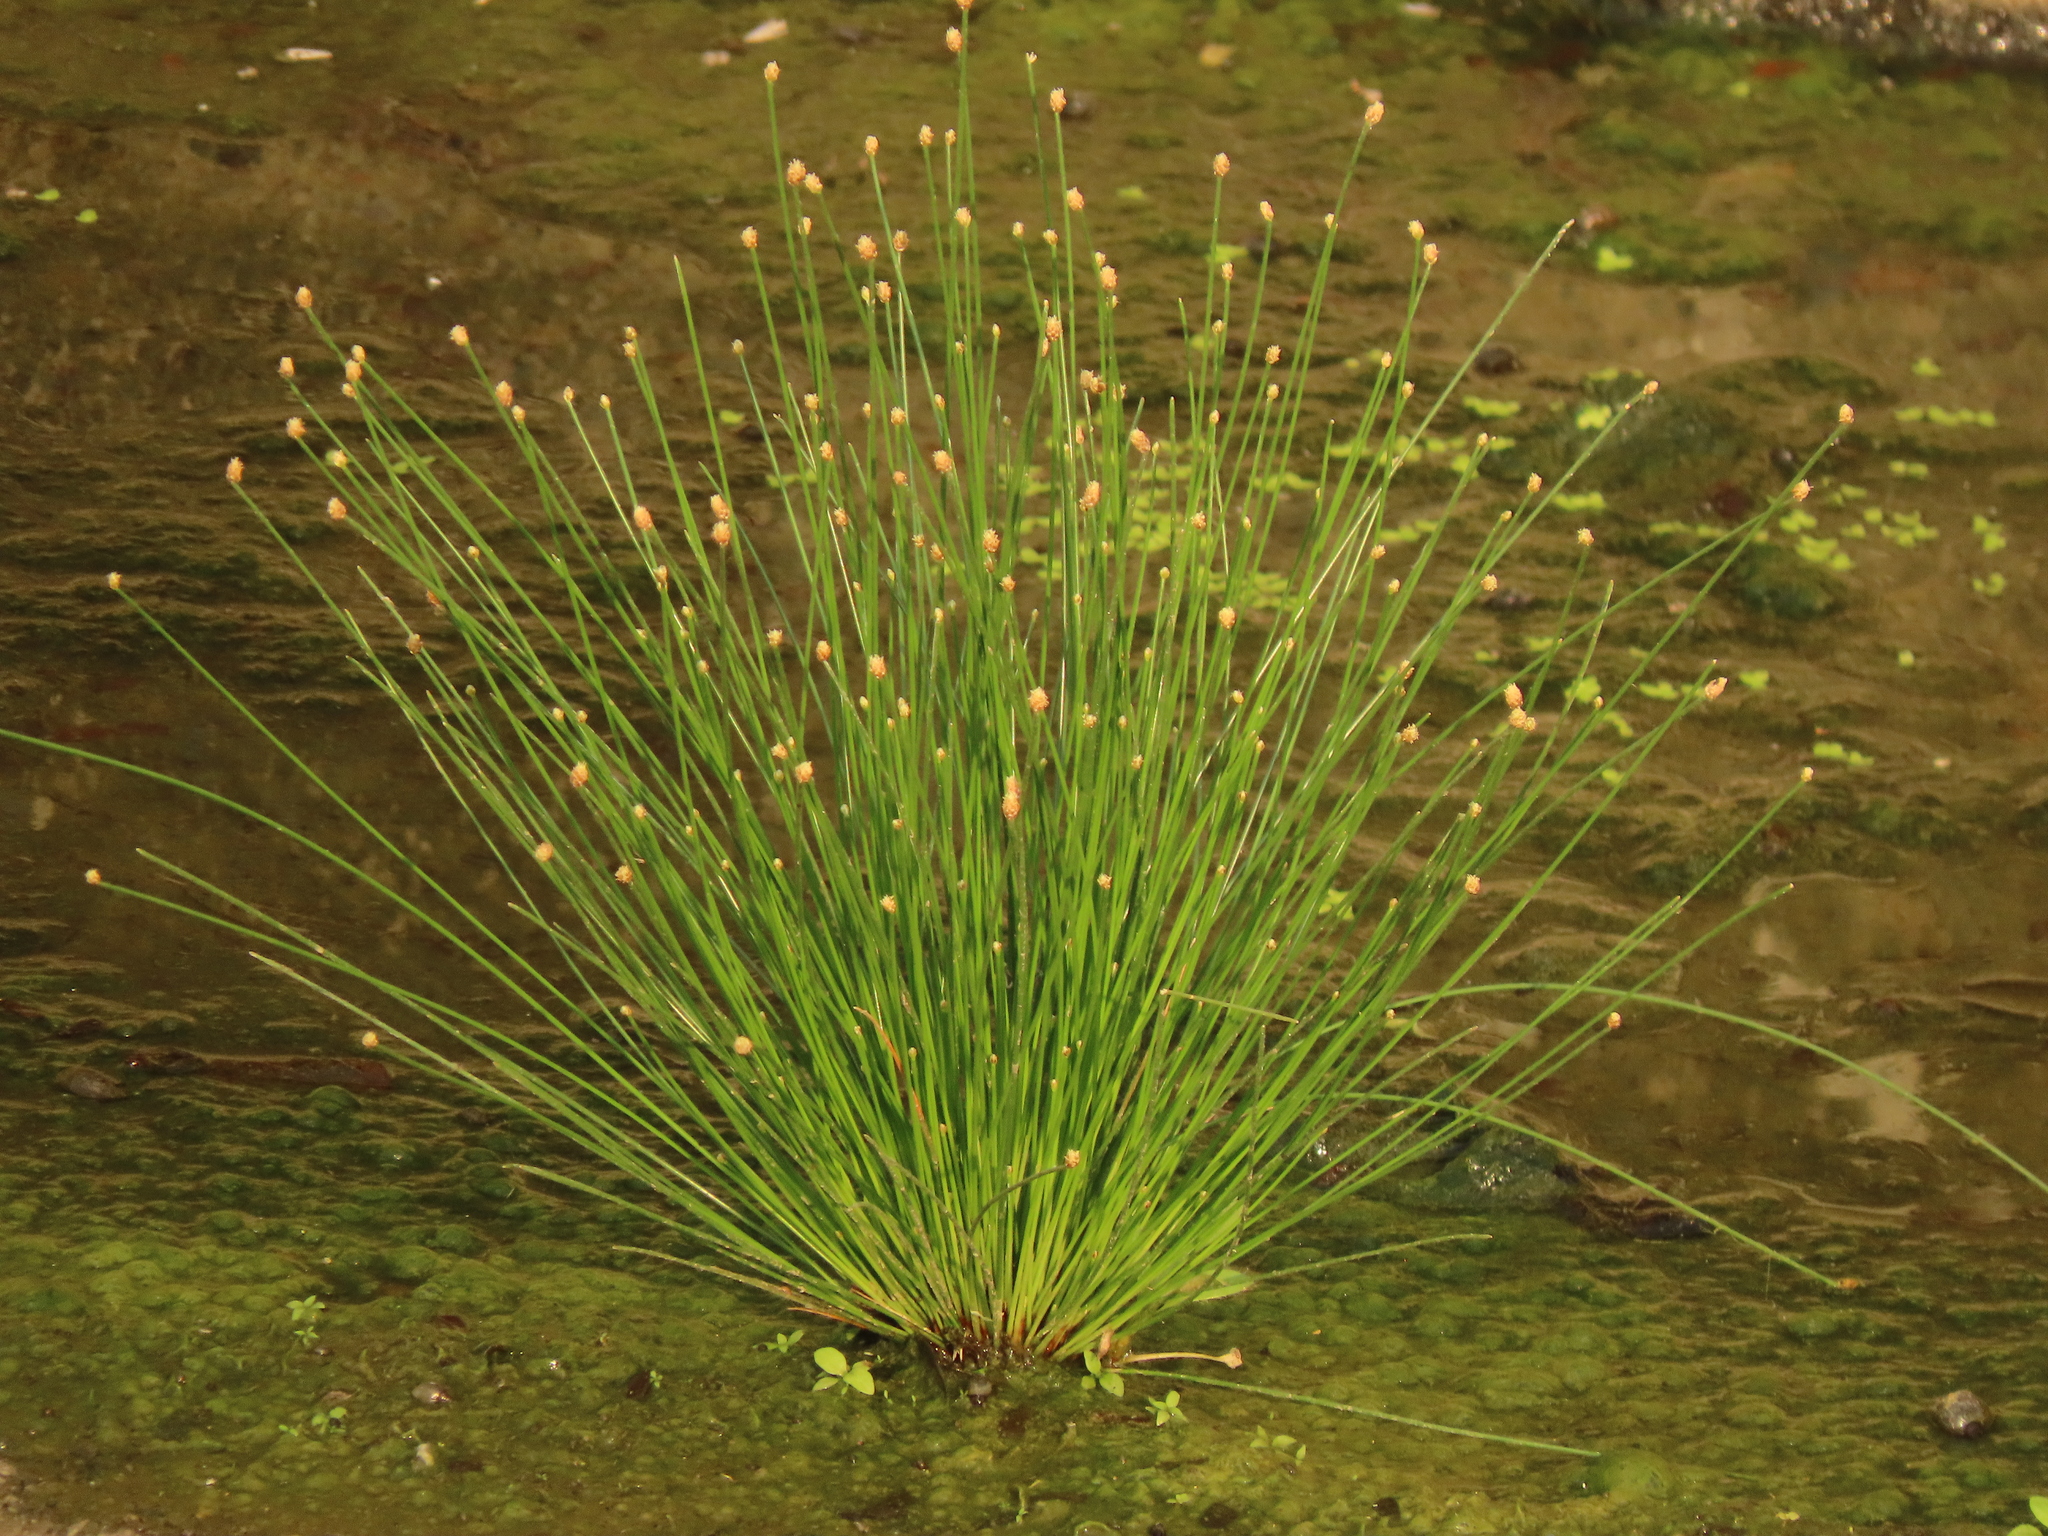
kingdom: Plantae
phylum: Tracheophyta
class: Liliopsida
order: Poales
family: Cyperaceae
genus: Eleocharis
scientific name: Eleocharis geniculata
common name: Canada spikesedge
